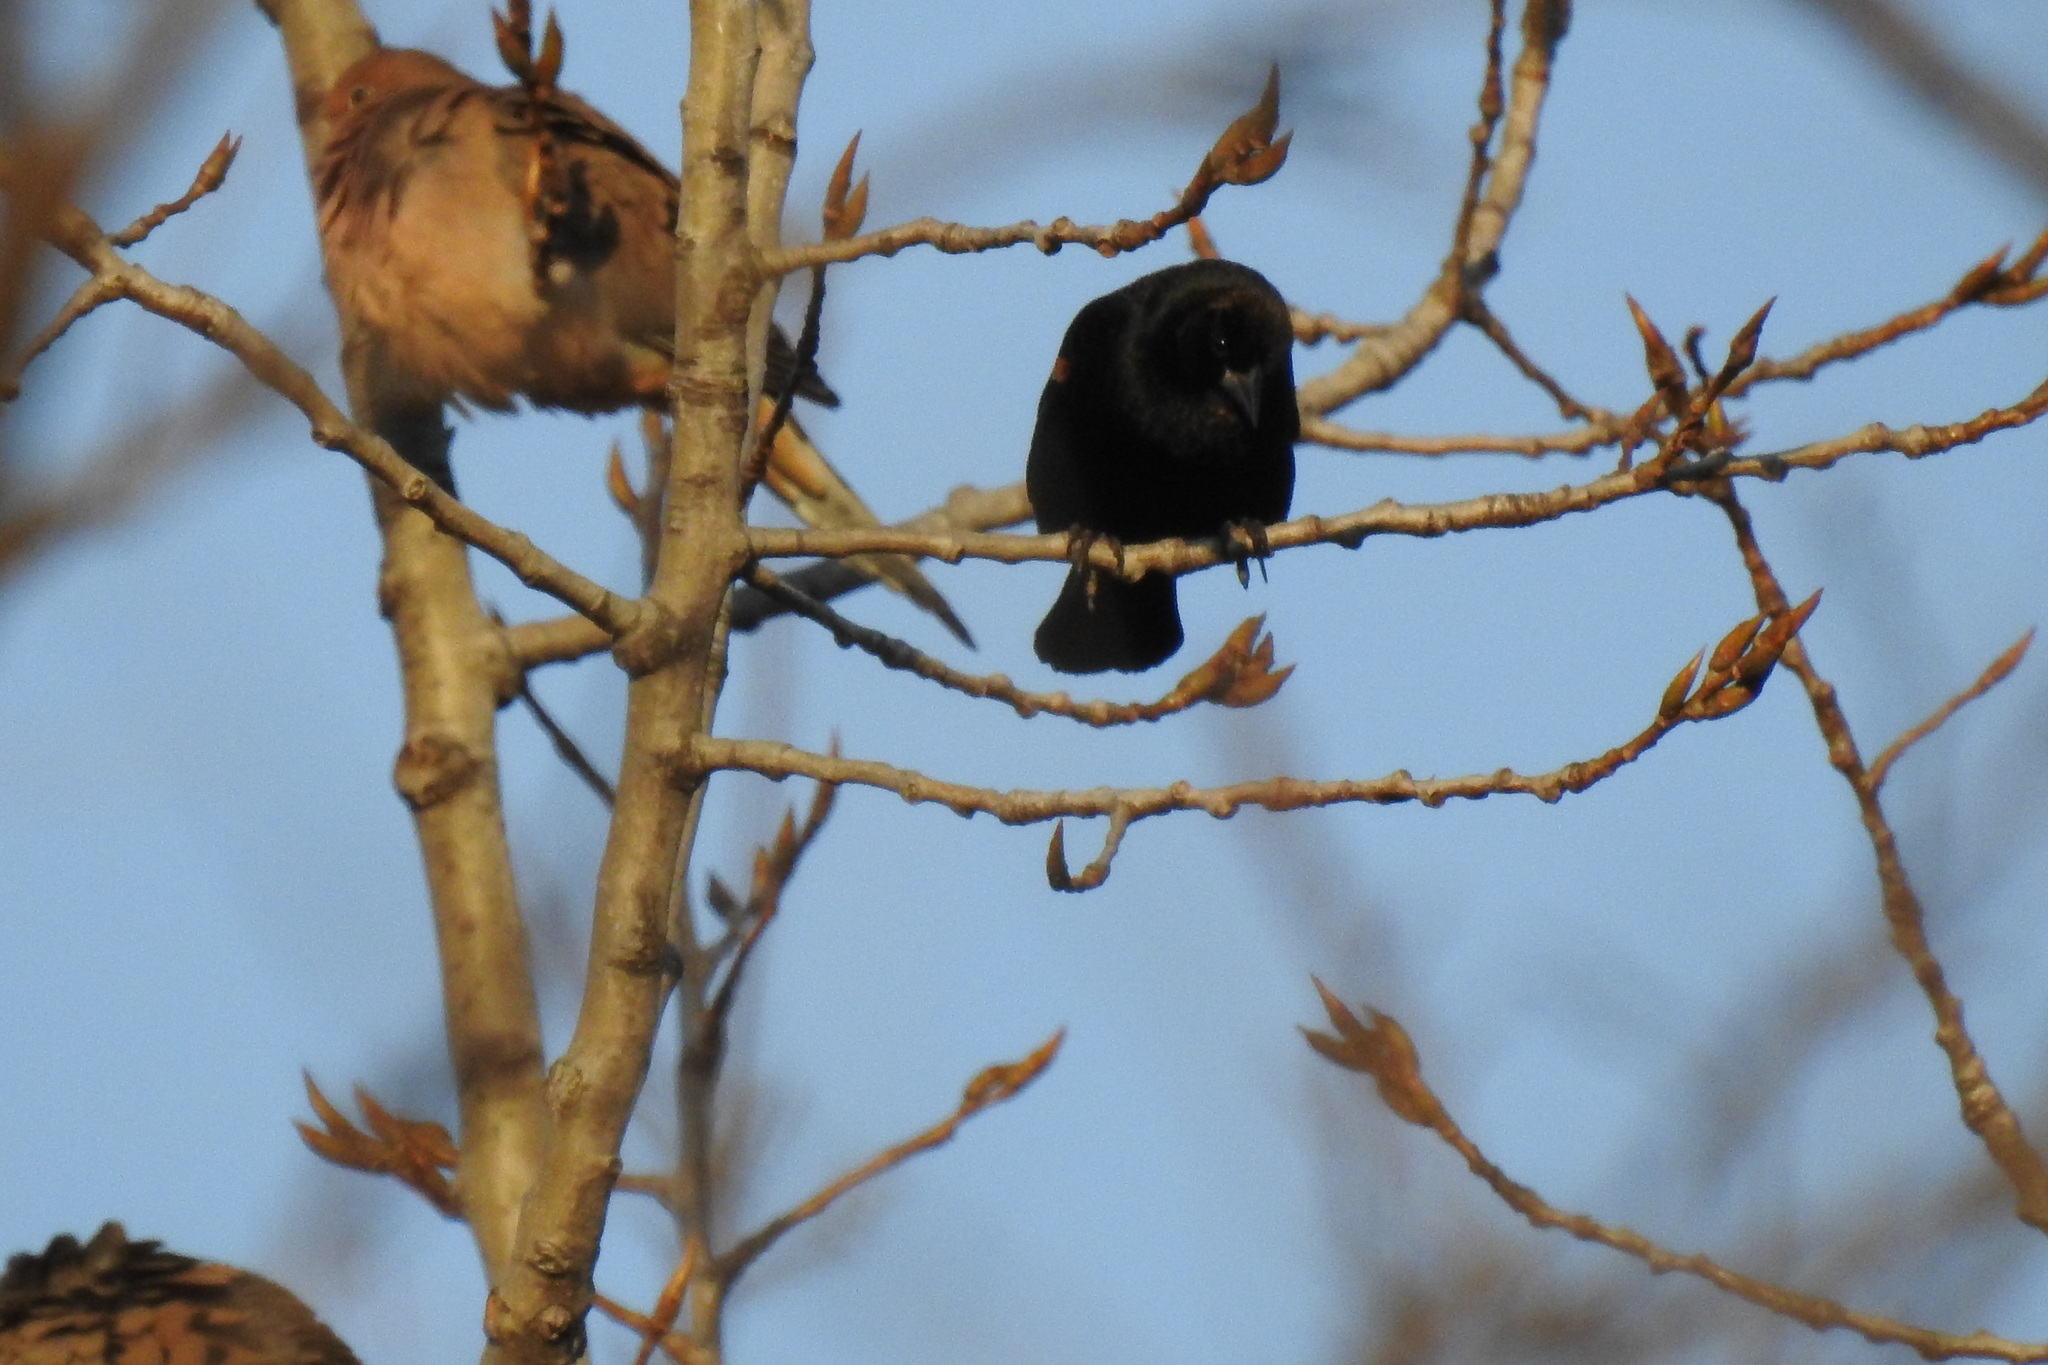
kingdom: Animalia
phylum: Chordata
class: Aves
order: Passeriformes
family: Icteridae
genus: Agelaius
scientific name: Agelaius phoeniceus
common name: Red-winged blackbird
